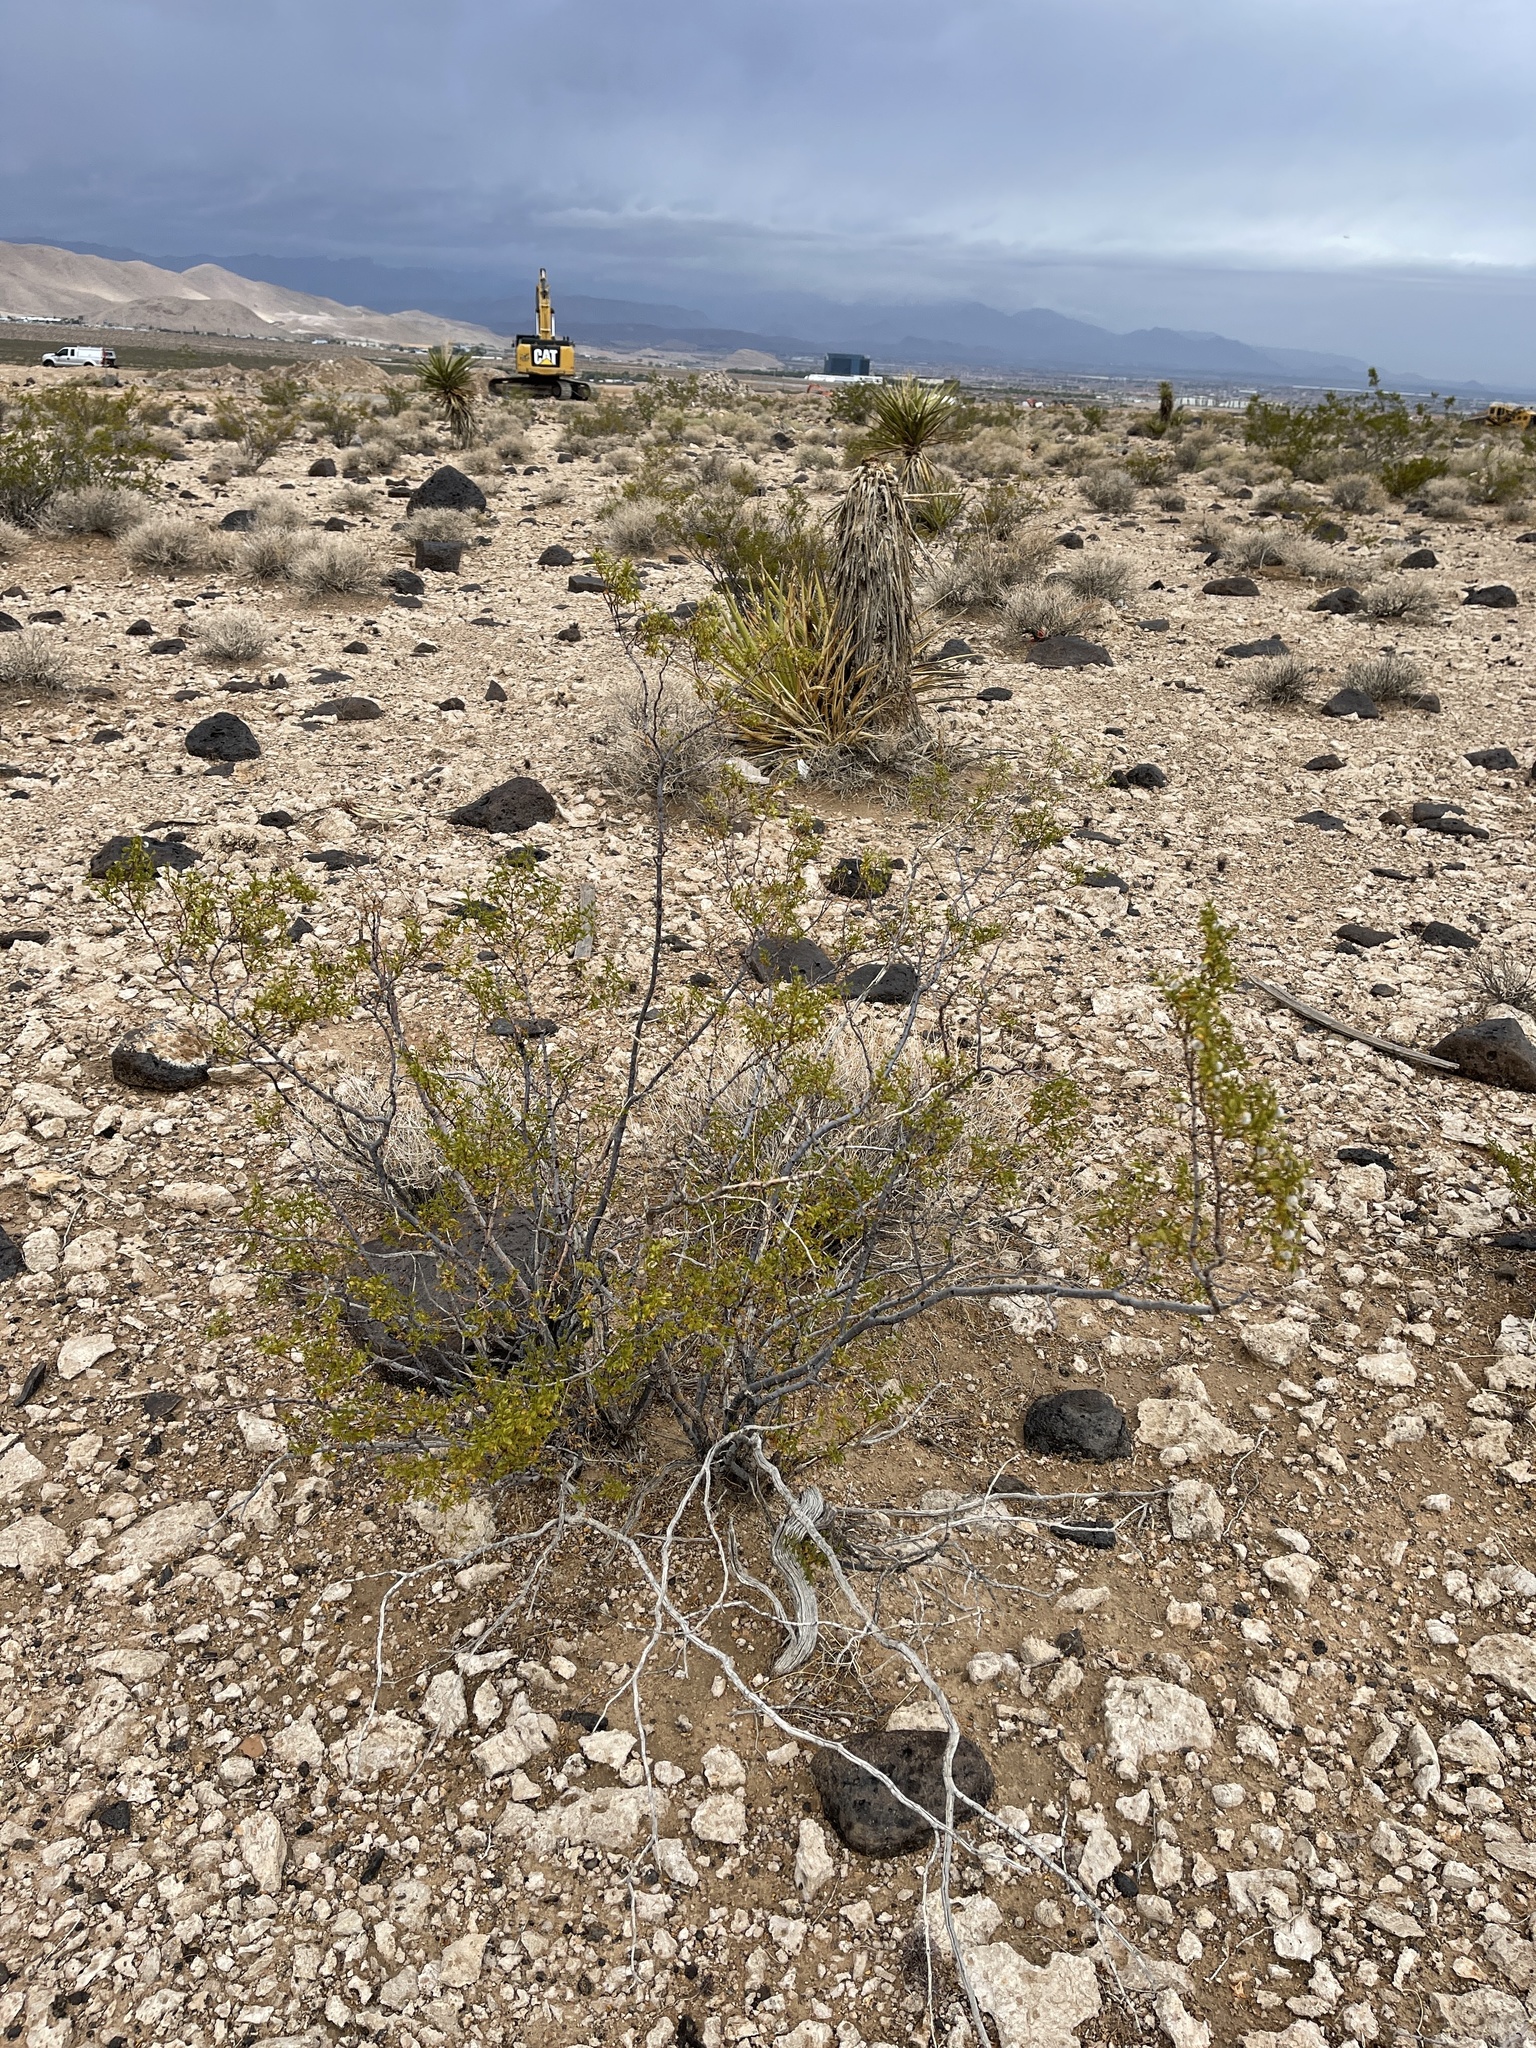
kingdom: Plantae
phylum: Tracheophyta
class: Magnoliopsida
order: Zygophyllales
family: Zygophyllaceae
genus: Larrea
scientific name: Larrea tridentata
